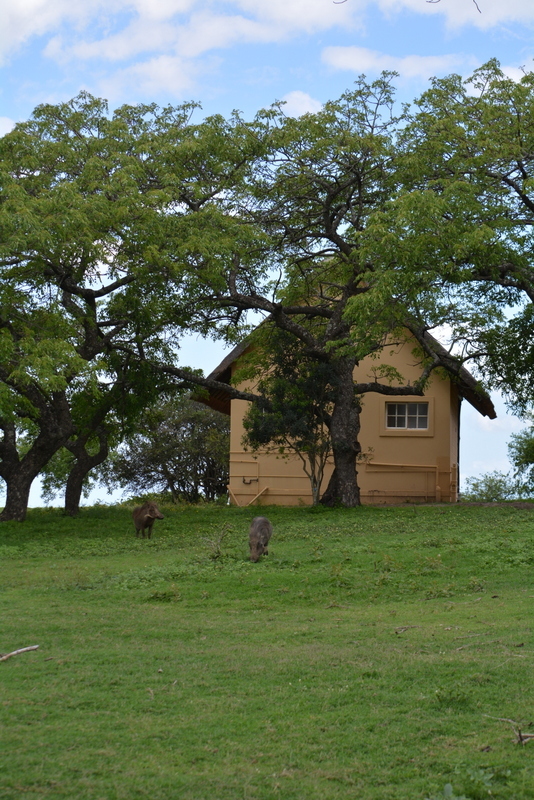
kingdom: Animalia
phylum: Chordata
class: Mammalia
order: Artiodactyla
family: Suidae
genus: Phacochoerus
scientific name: Phacochoerus africanus
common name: Common warthog
